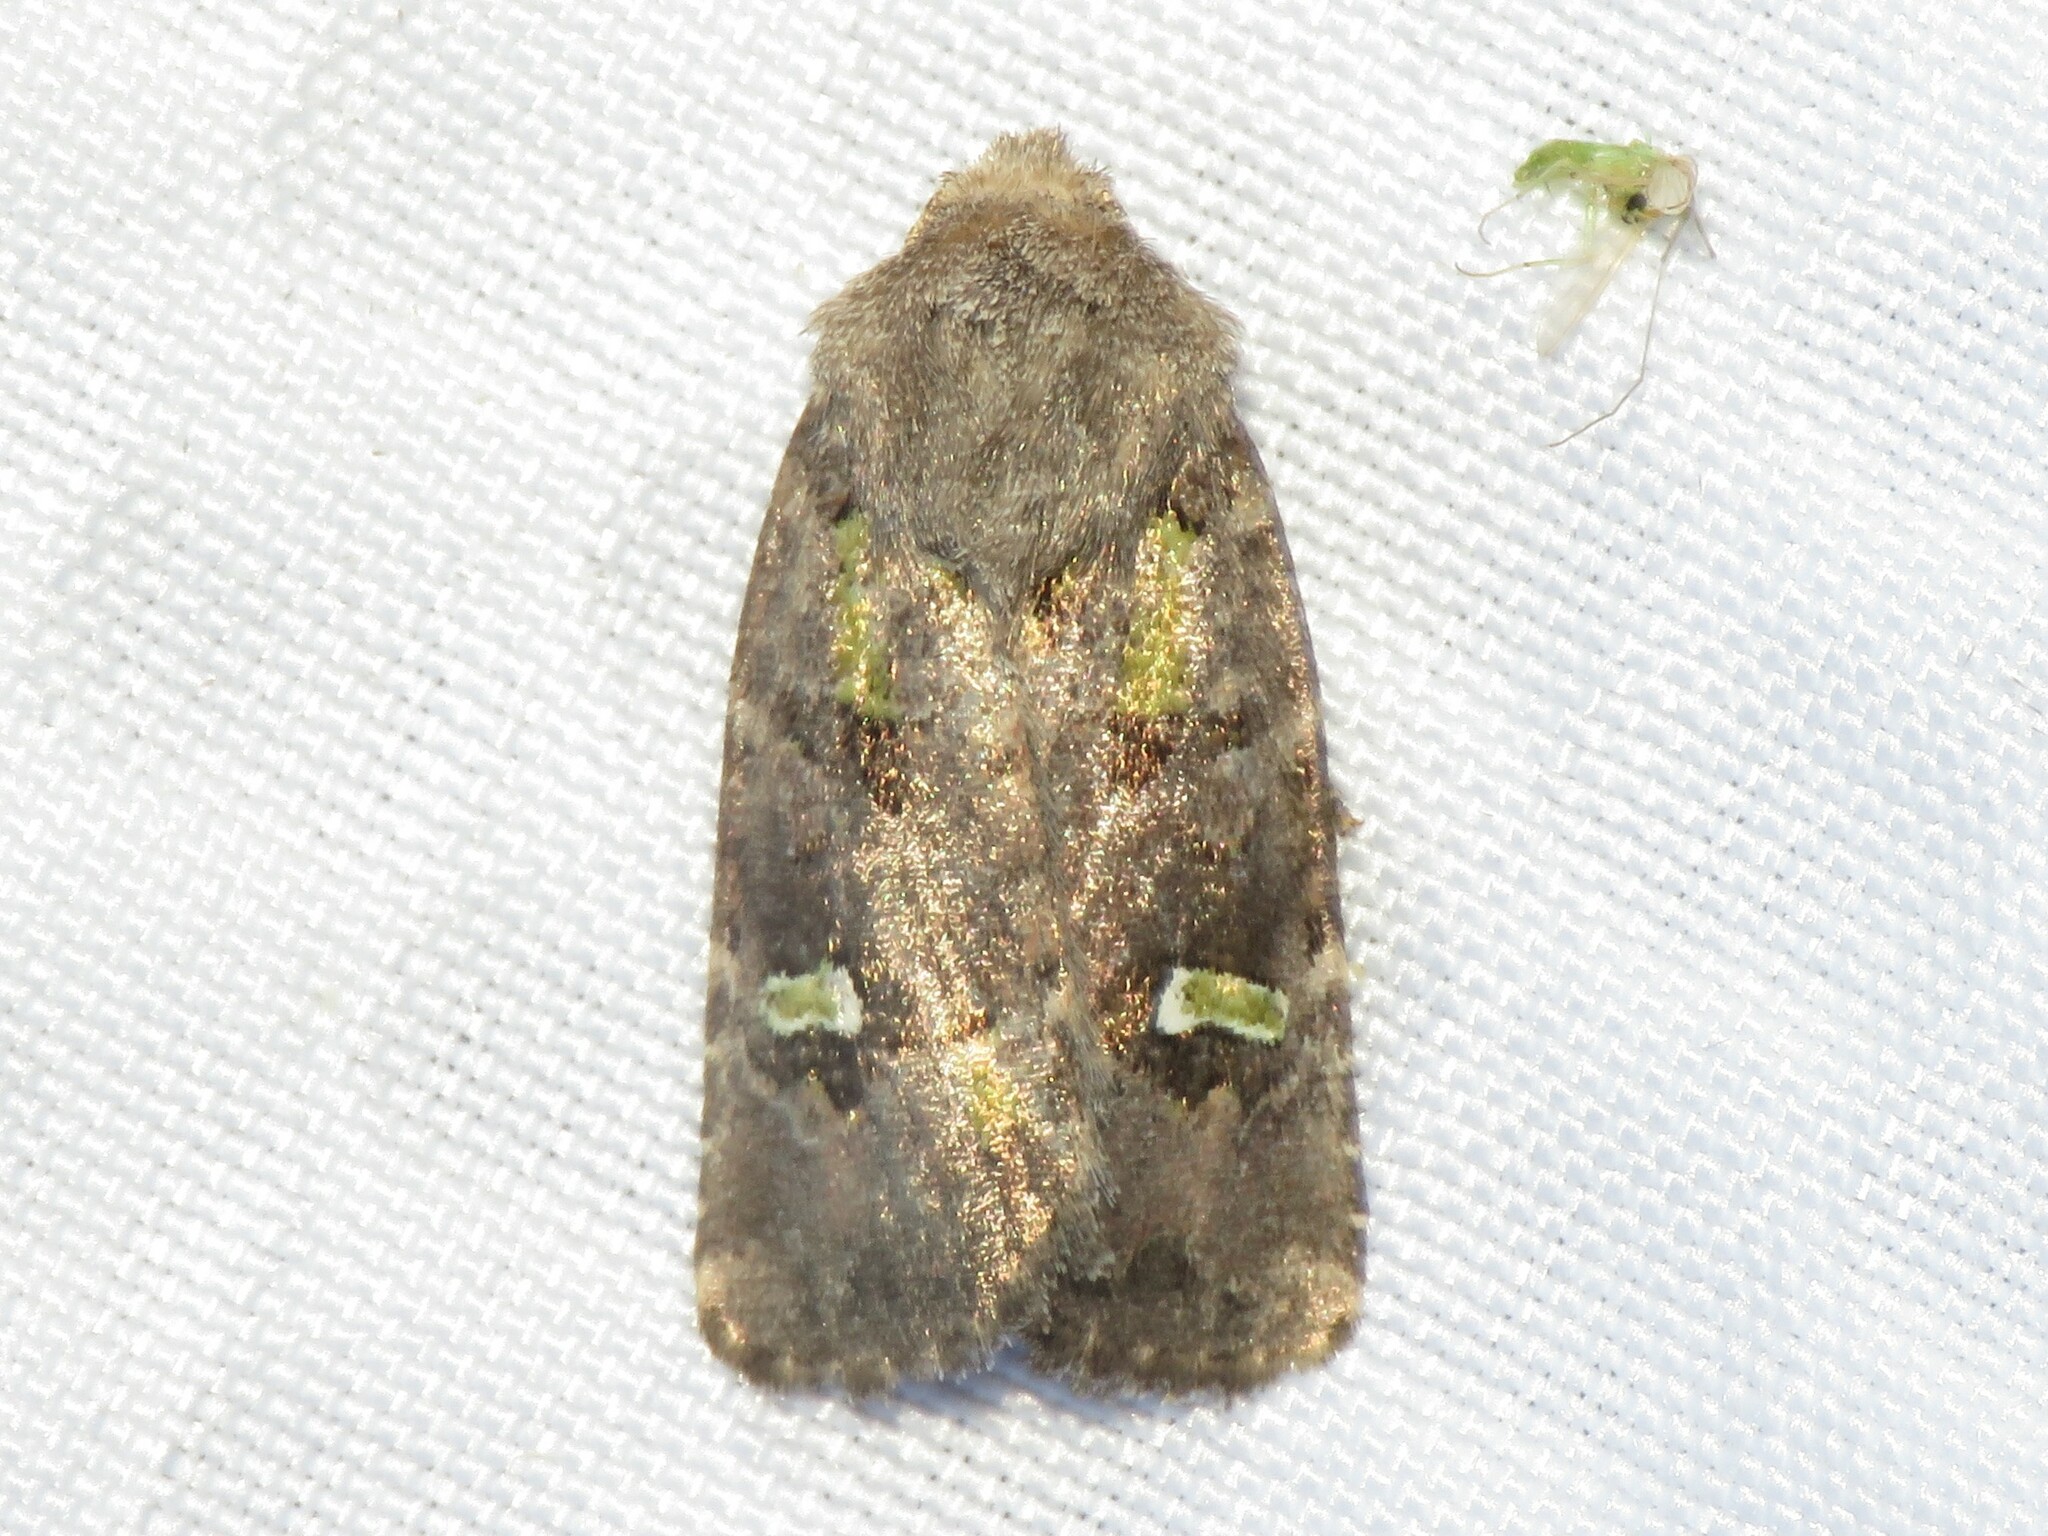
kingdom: Animalia
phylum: Arthropoda
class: Insecta
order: Lepidoptera
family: Noctuidae
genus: Lacinipolia
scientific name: Lacinipolia renigera
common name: Kidney-spotted minor
